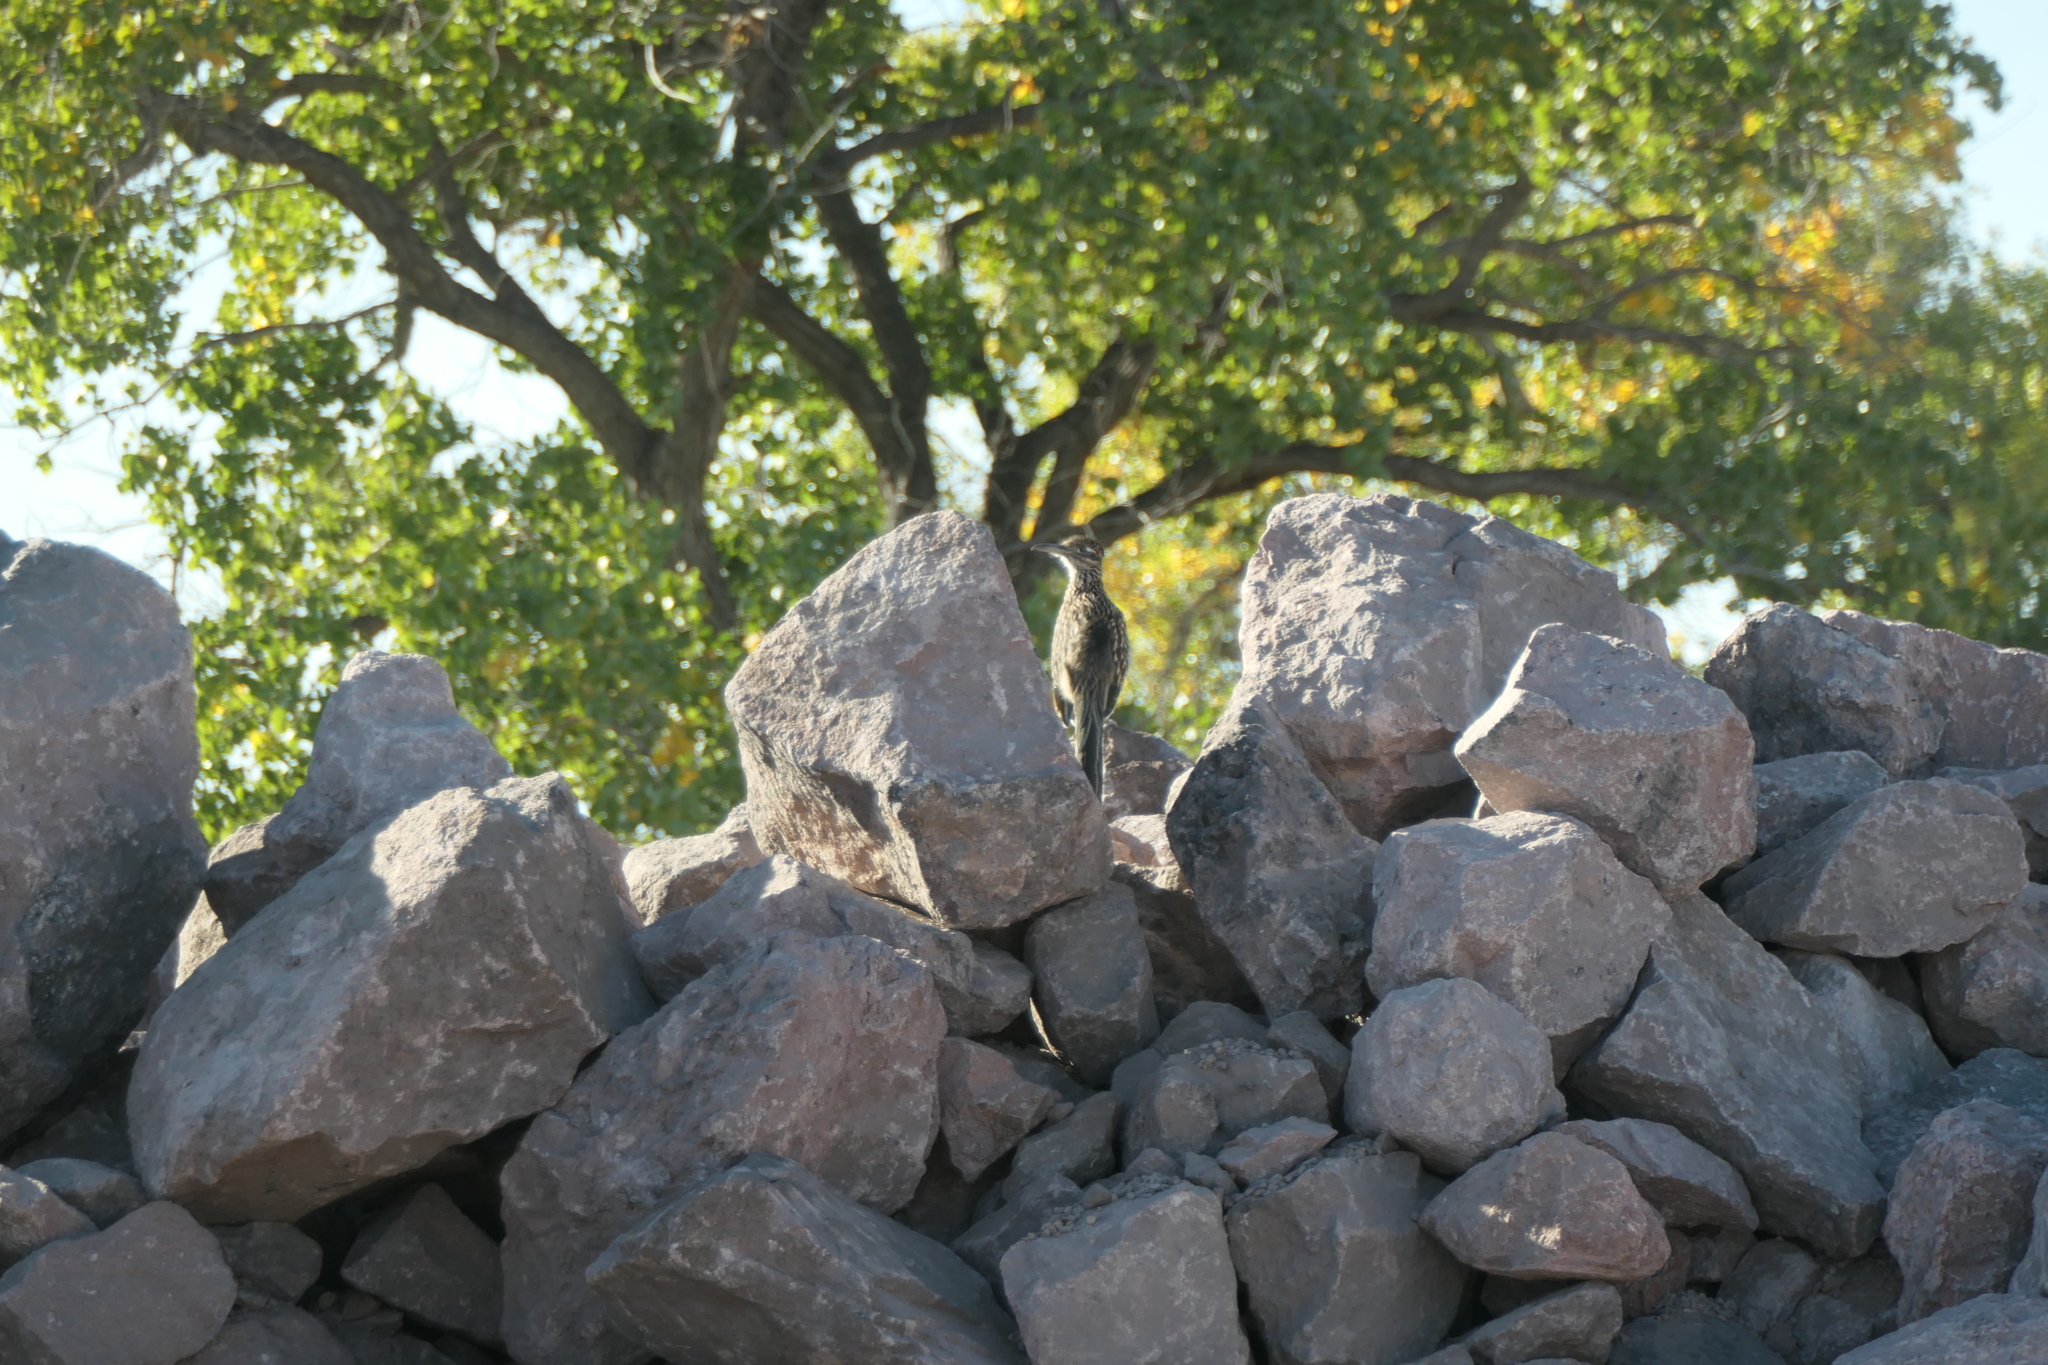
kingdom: Animalia
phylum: Chordata
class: Aves
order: Cuculiformes
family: Cuculidae
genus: Geococcyx
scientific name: Geococcyx californianus
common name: Greater roadrunner
